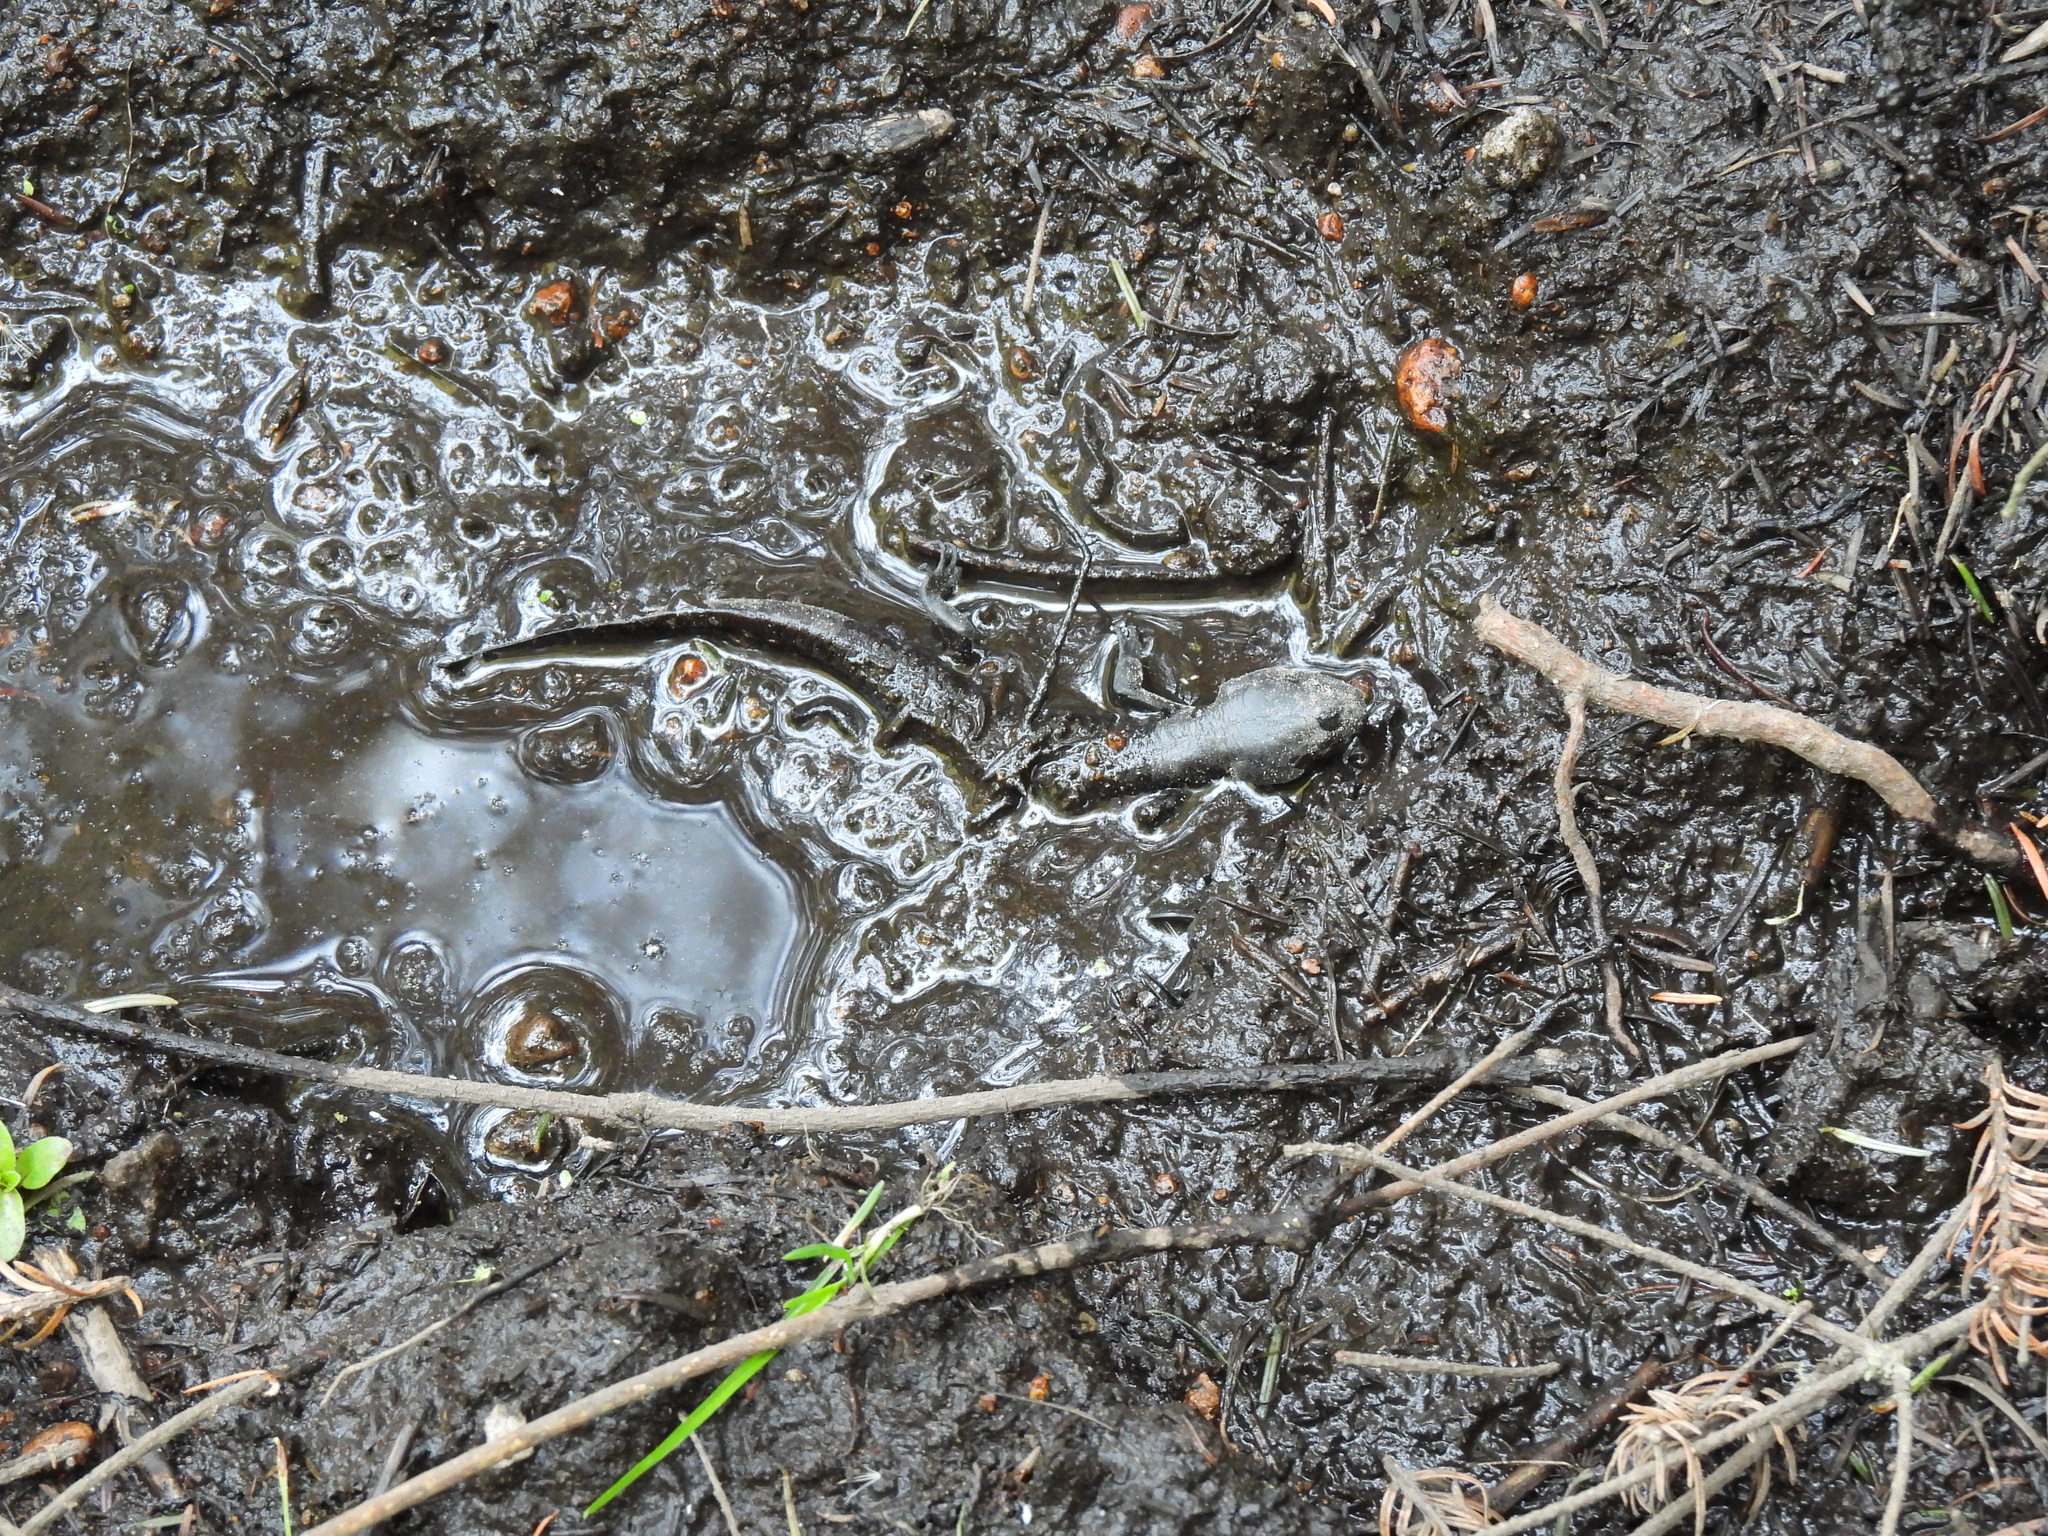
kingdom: Animalia
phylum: Chordata
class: Amphibia
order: Caudata
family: Ambystomatidae
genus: Ambystoma
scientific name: Ambystoma rivulare
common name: Michoacan stream salamander
